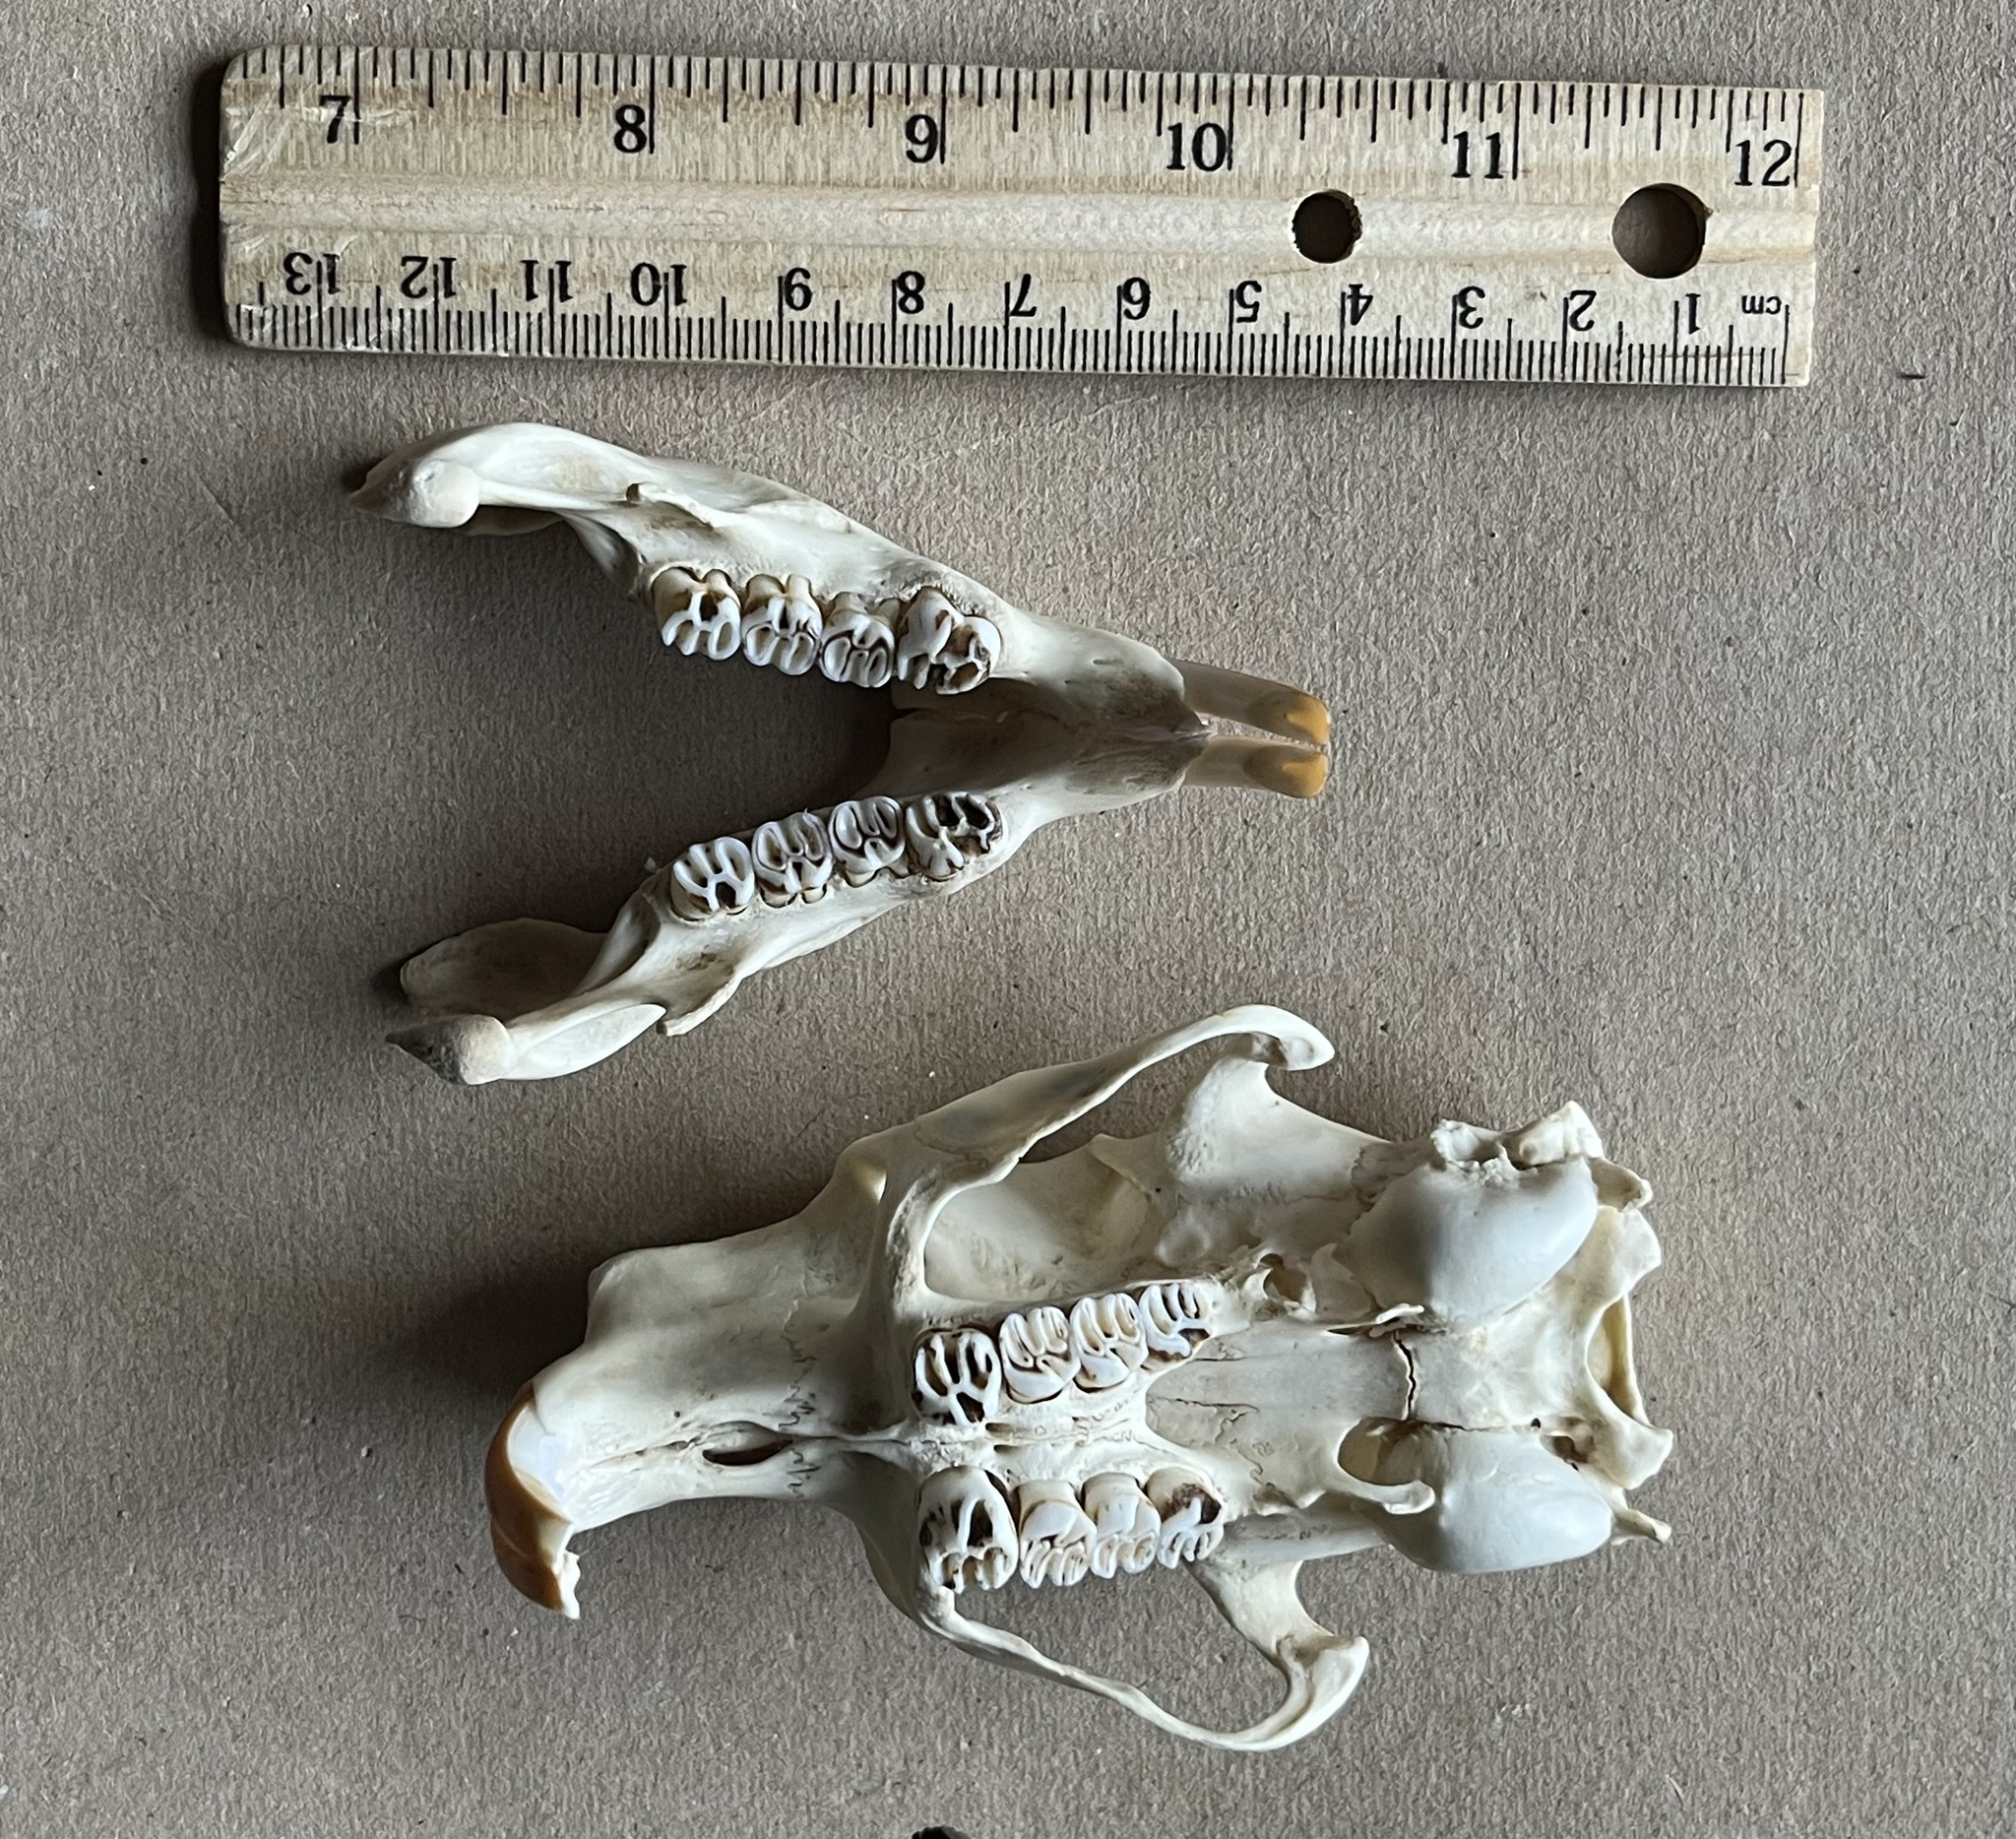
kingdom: Animalia
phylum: Chordata
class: Mammalia
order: Rodentia
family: Erethizontidae
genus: Erethizon
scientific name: Erethizon dorsatus
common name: North american porcupine
